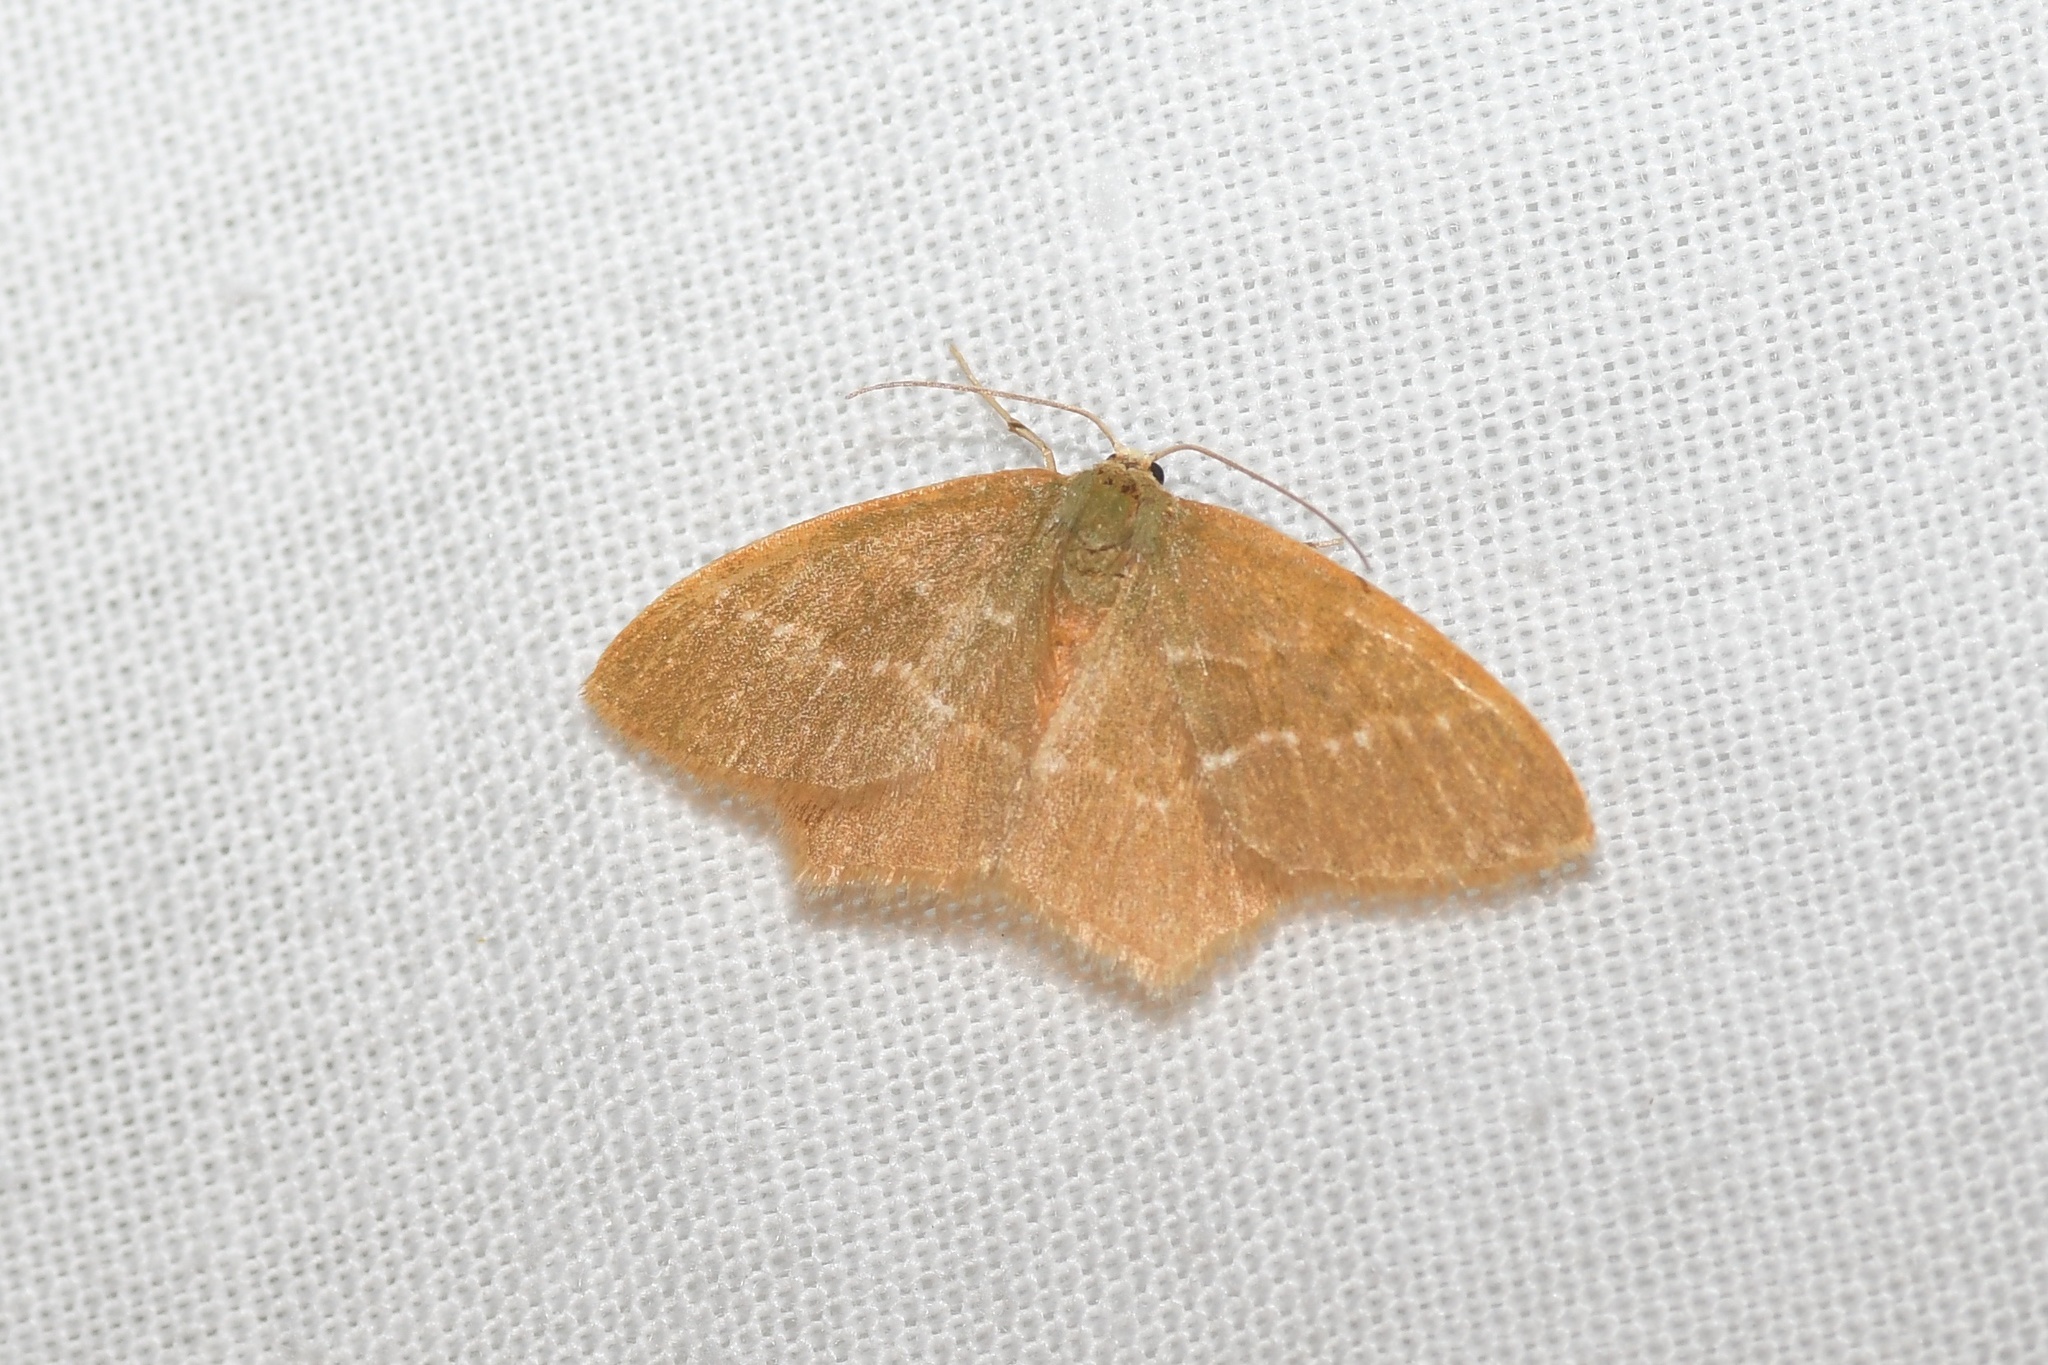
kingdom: Animalia
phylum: Arthropoda
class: Insecta
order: Lepidoptera
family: Geometridae
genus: Thalera
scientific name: Thalera pistasciaria
